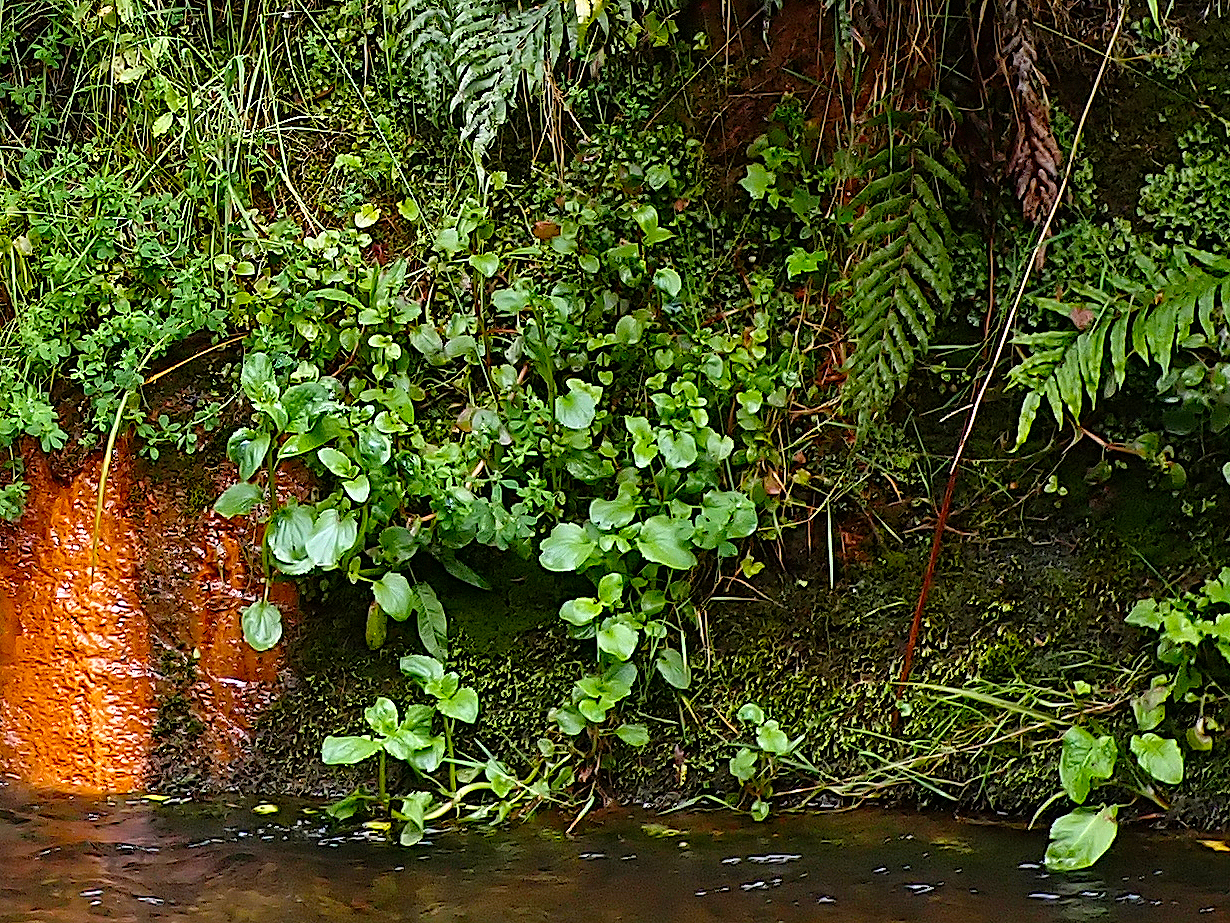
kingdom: Plantae
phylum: Tracheophyta
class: Magnoliopsida
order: Lamiales
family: Phrymaceae
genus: Erythranthe
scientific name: Erythranthe guttata
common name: Monkeyflower
